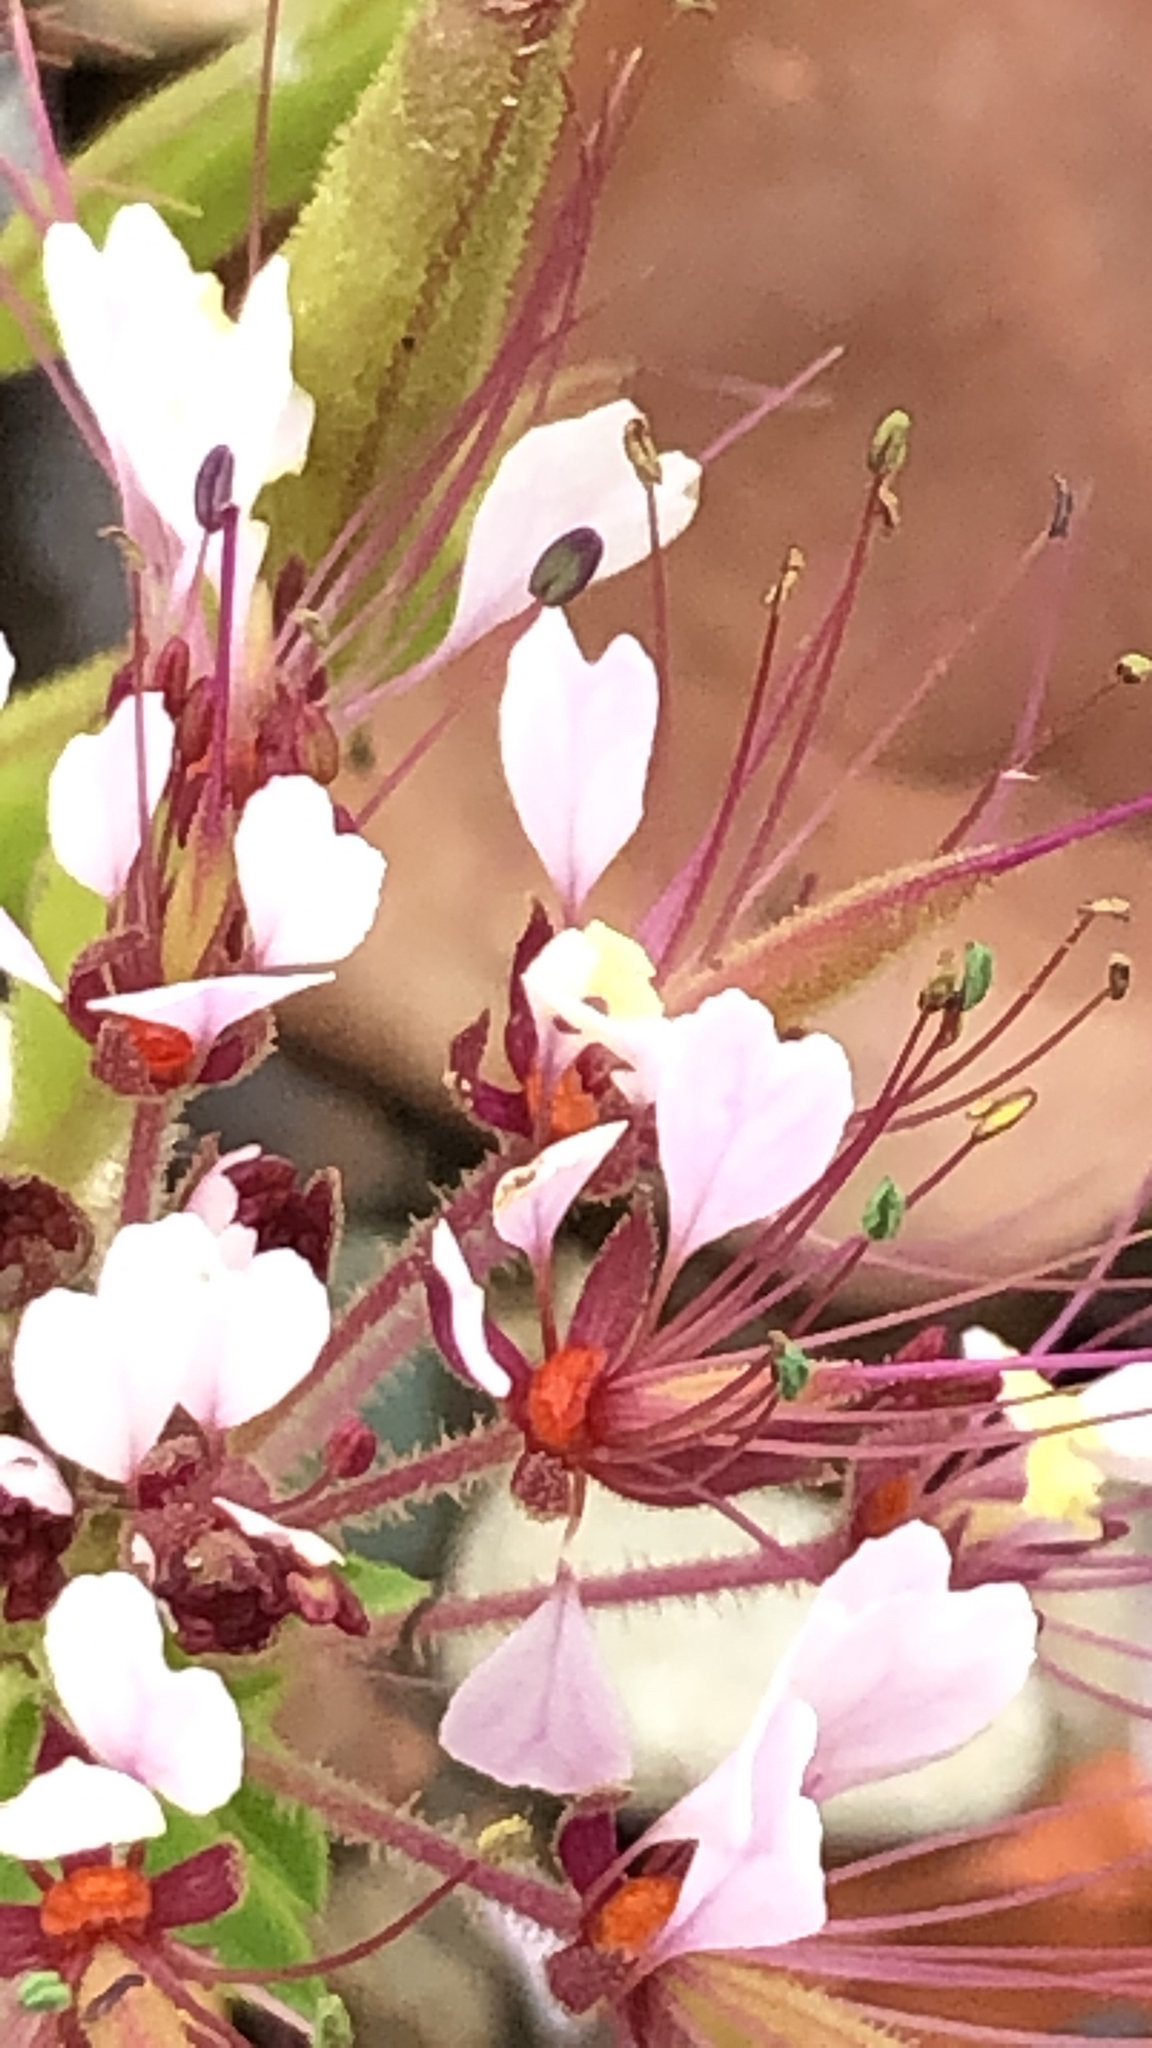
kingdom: Plantae
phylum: Tracheophyta
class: Magnoliopsida
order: Brassicales
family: Cleomaceae
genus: Polanisia
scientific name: Polanisia dodecandra
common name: Clammyweed
